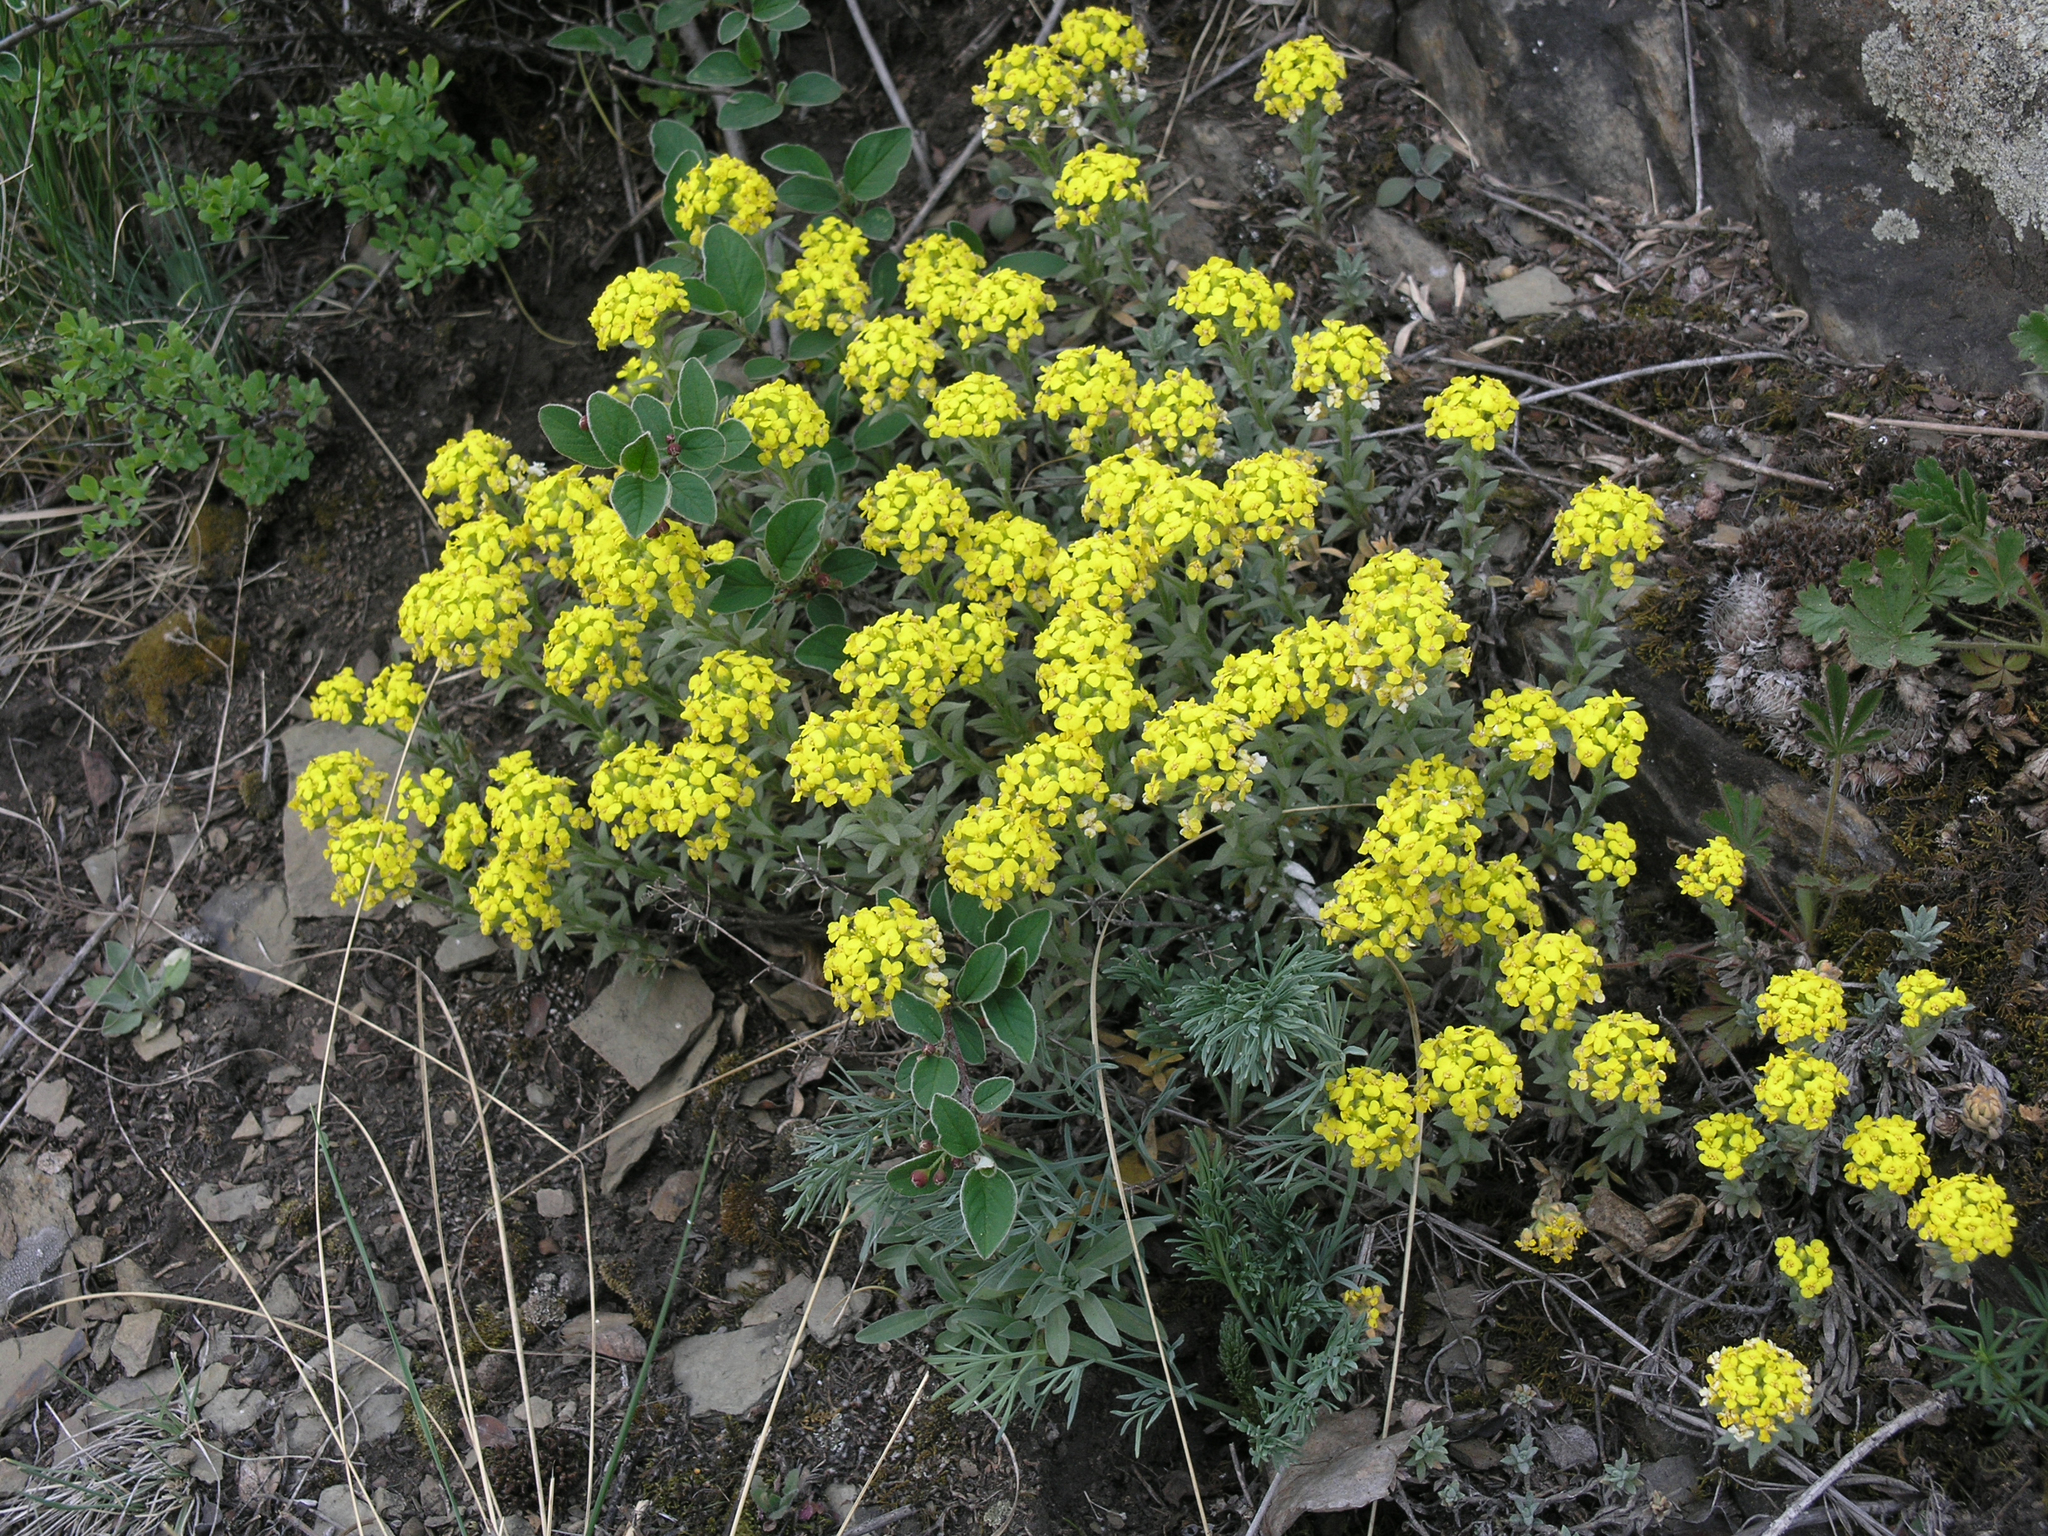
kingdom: Plantae
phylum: Tracheophyta
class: Magnoliopsida
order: Brassicales
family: Brassicaceae
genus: Alyssum
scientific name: Alyssum lenense
